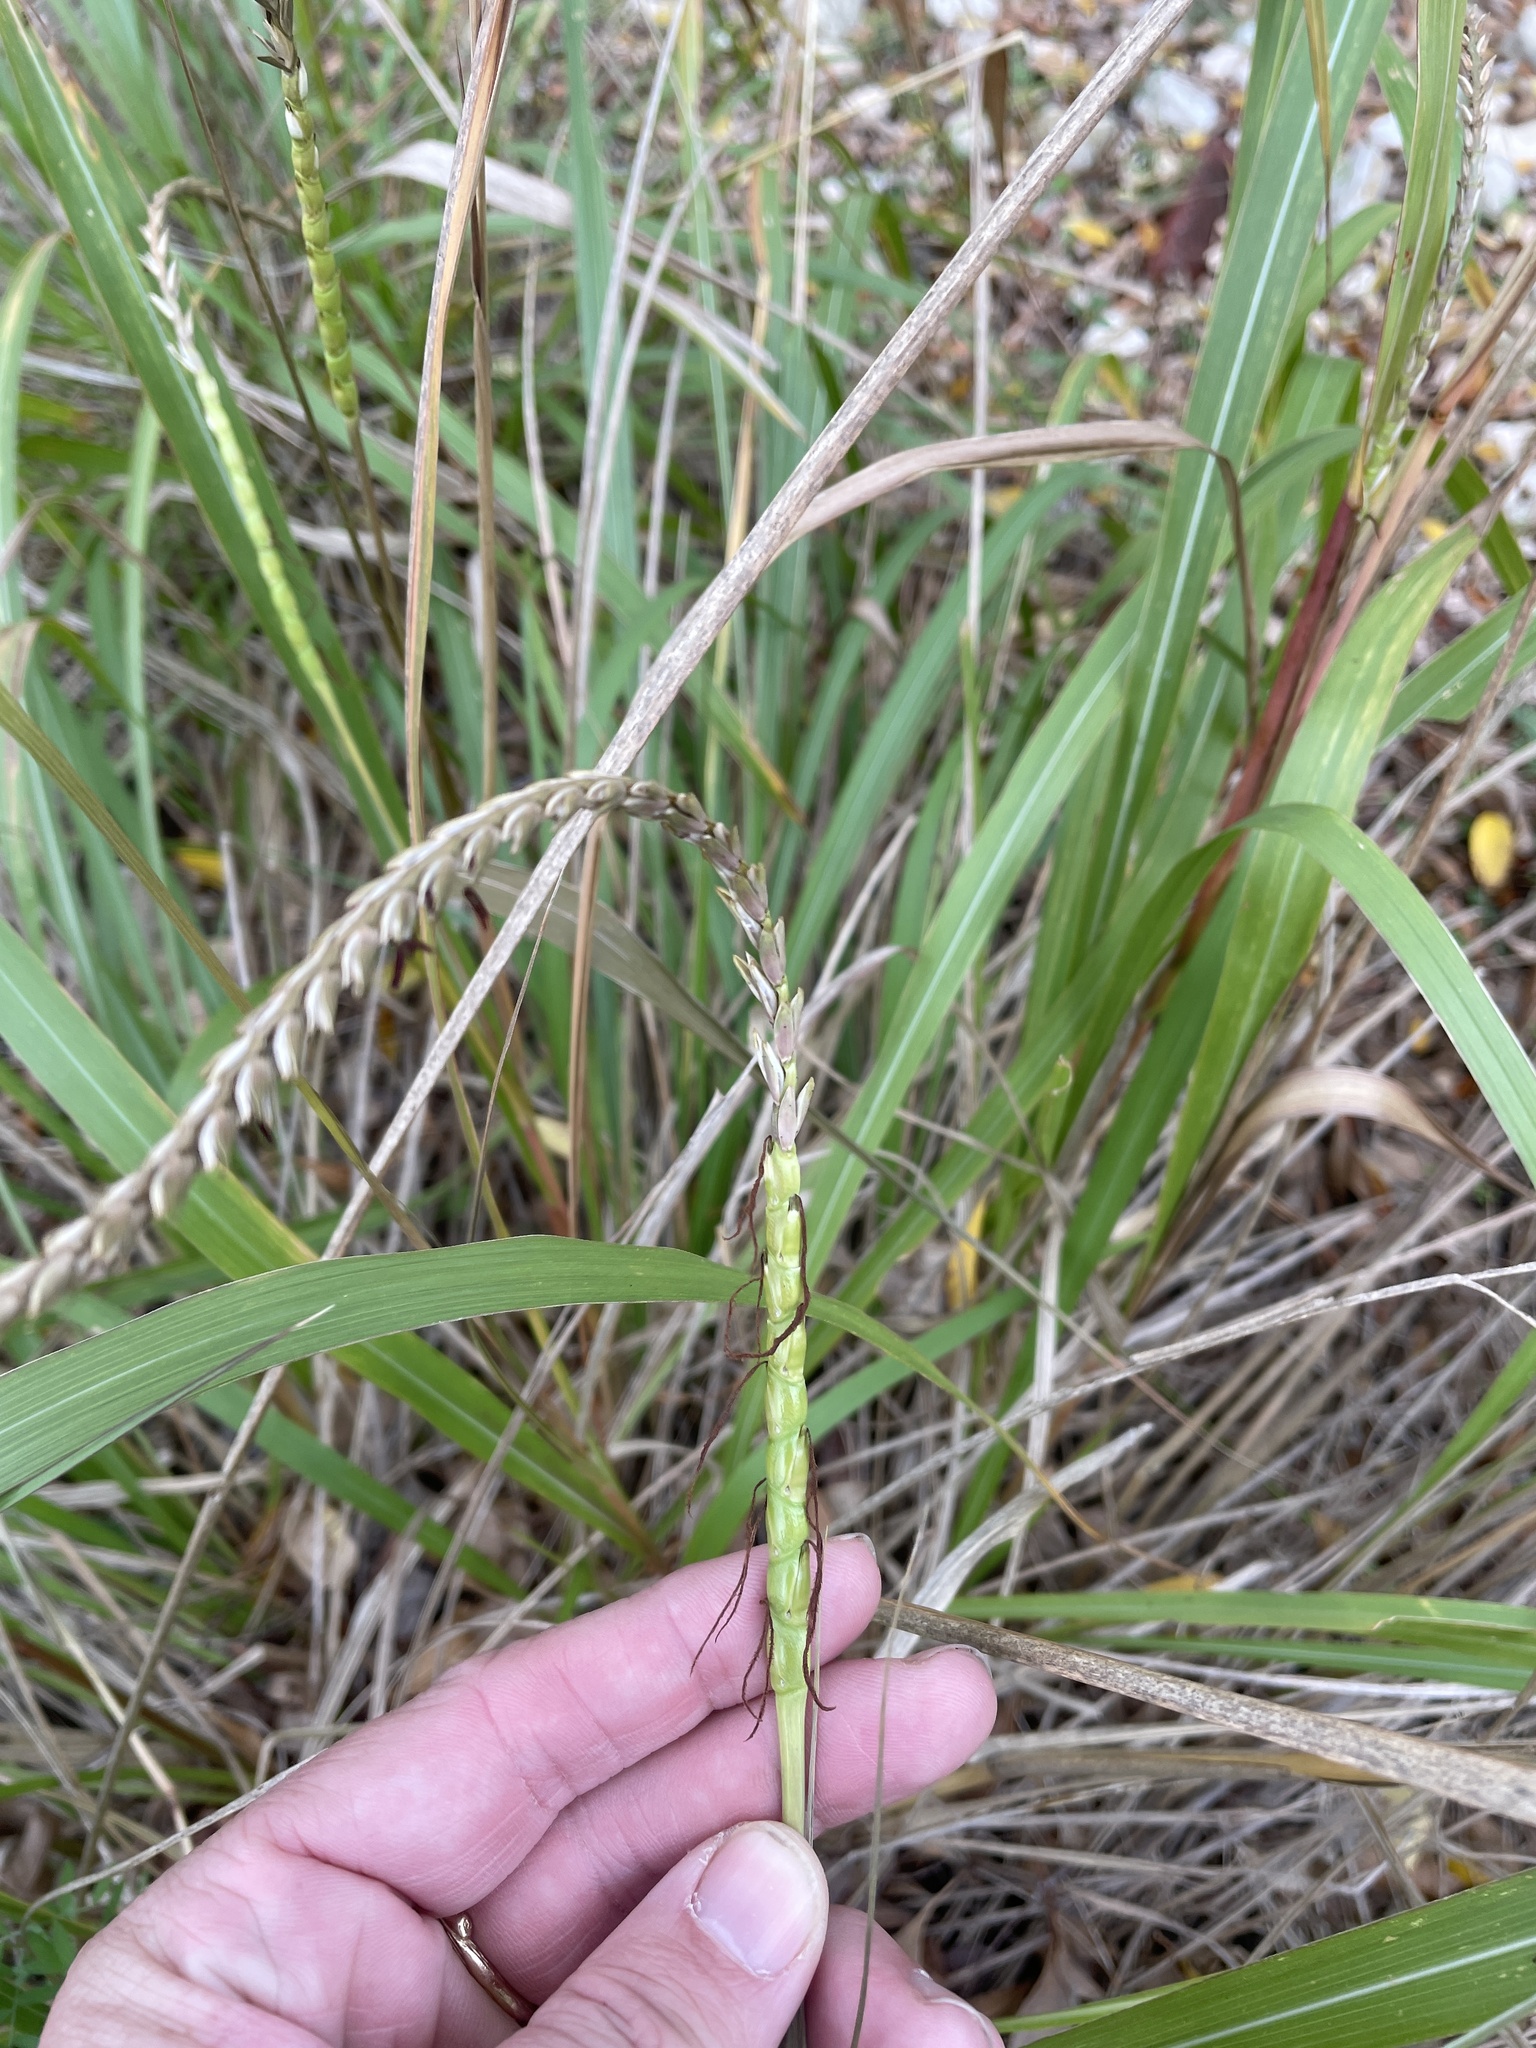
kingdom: Plantae
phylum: Tracheophyta
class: Liliopsida
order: Poales
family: Poaceae
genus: Tripsacum
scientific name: Tripsacum dactyloides
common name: Buffalo-grass
